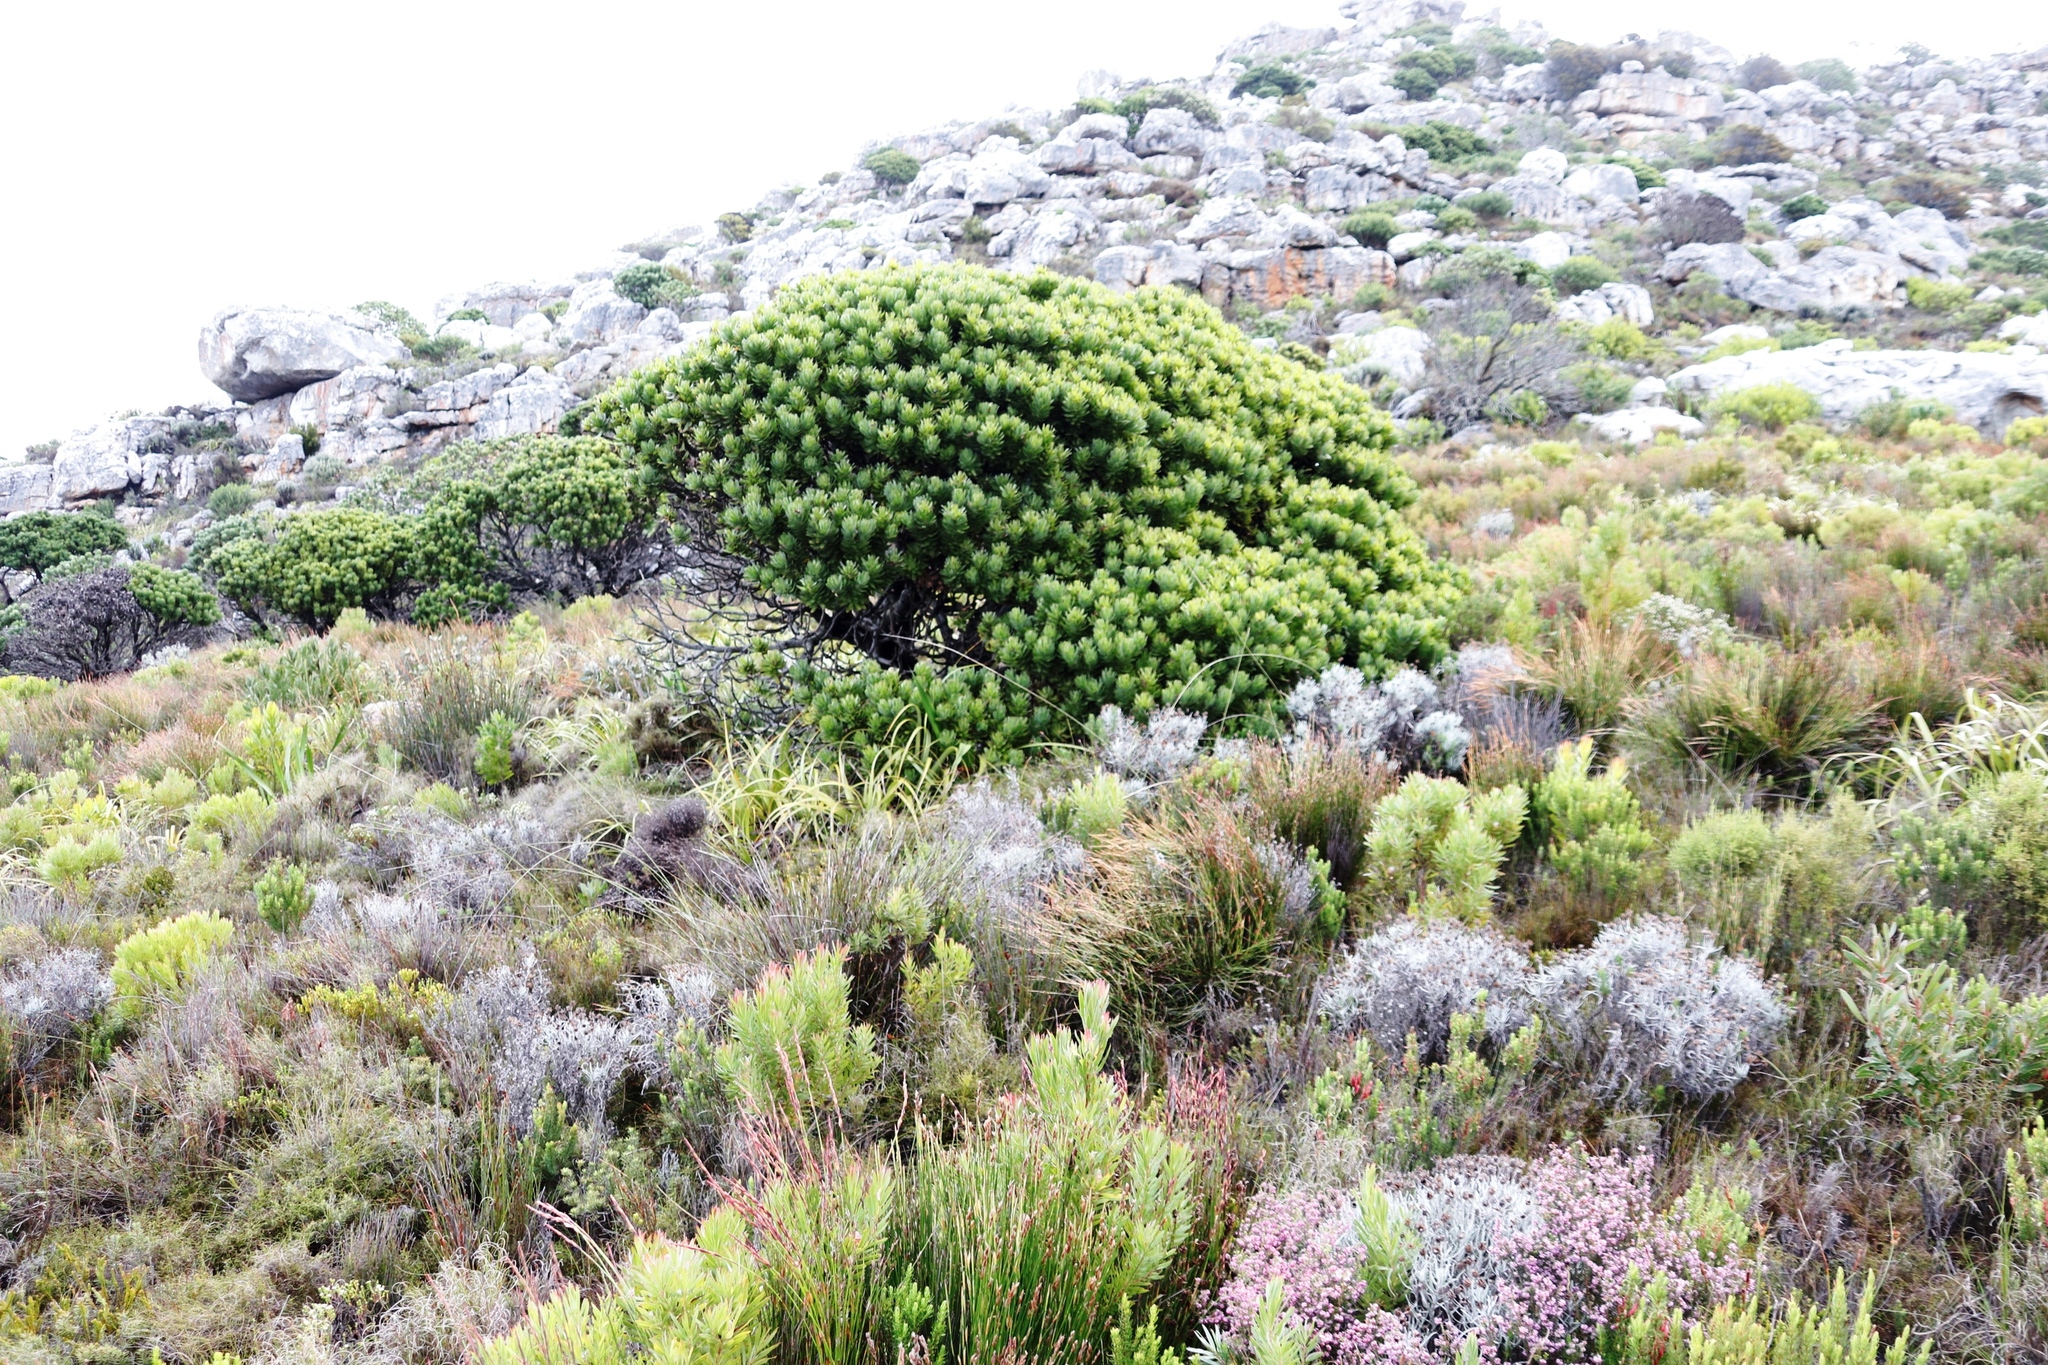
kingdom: Plantae
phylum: Tracheophyta
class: Magnoliopsida
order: Proteales
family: Proteaceae
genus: Leucadendron
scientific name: Leucadendron xanthoconus
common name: Sickle-leaf conebush
